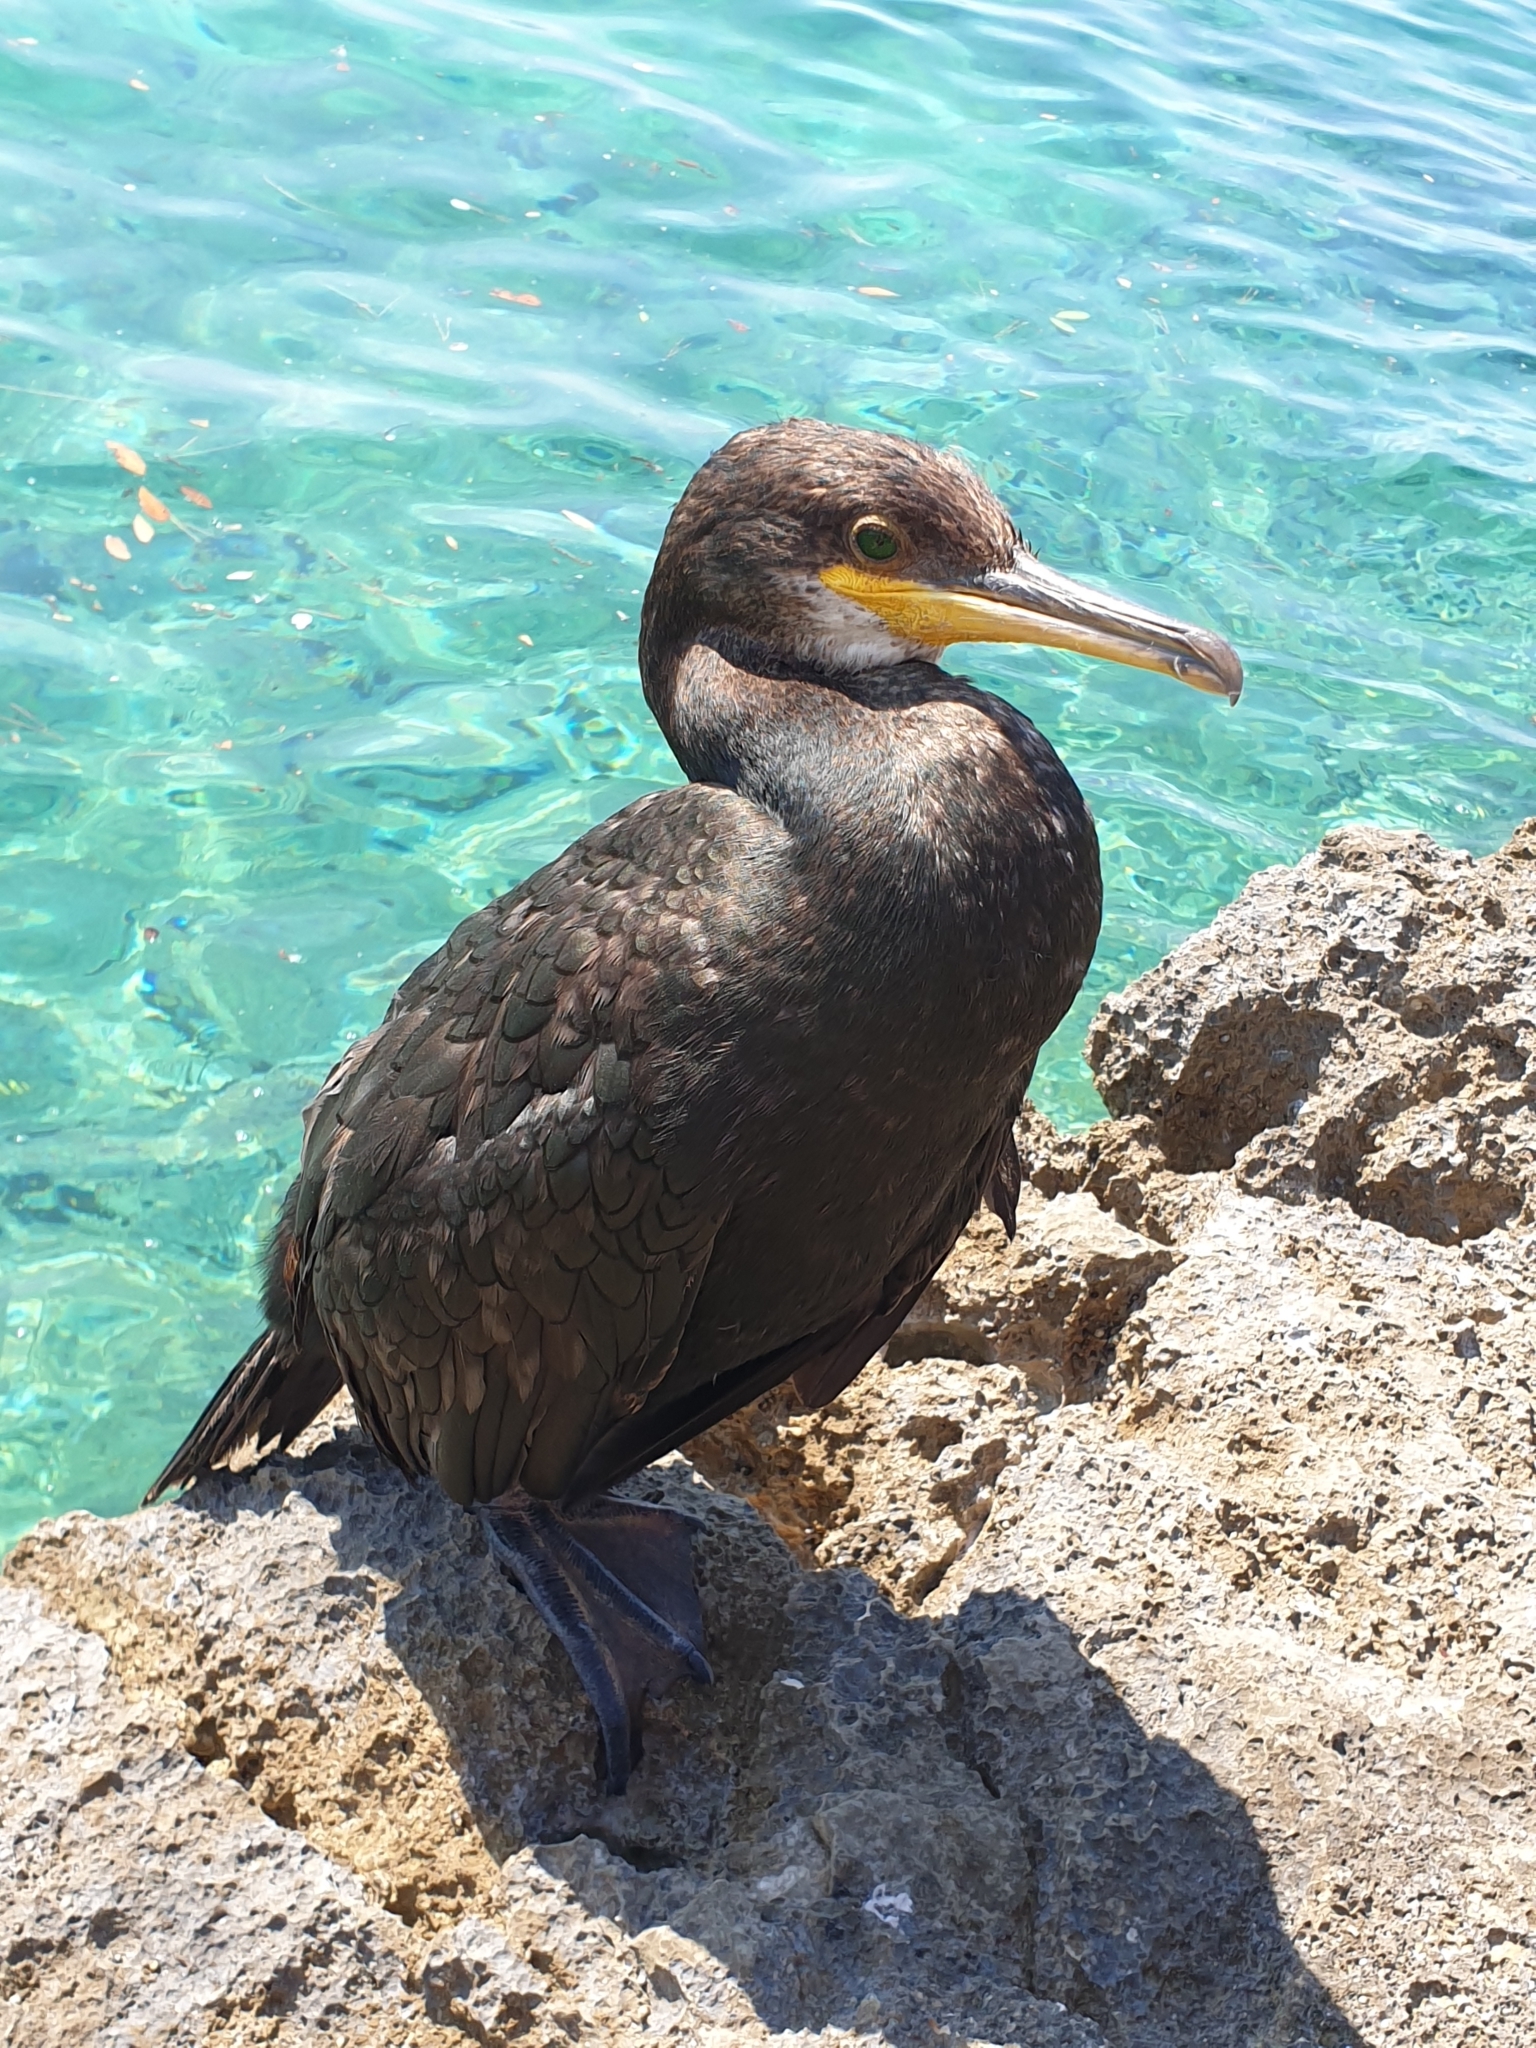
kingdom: Animalia
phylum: Chordata
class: Aves
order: Suliformes
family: Phalacrocoracidae
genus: Phalacrocorax
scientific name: Phalacrocorax aristotelis
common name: European shag
